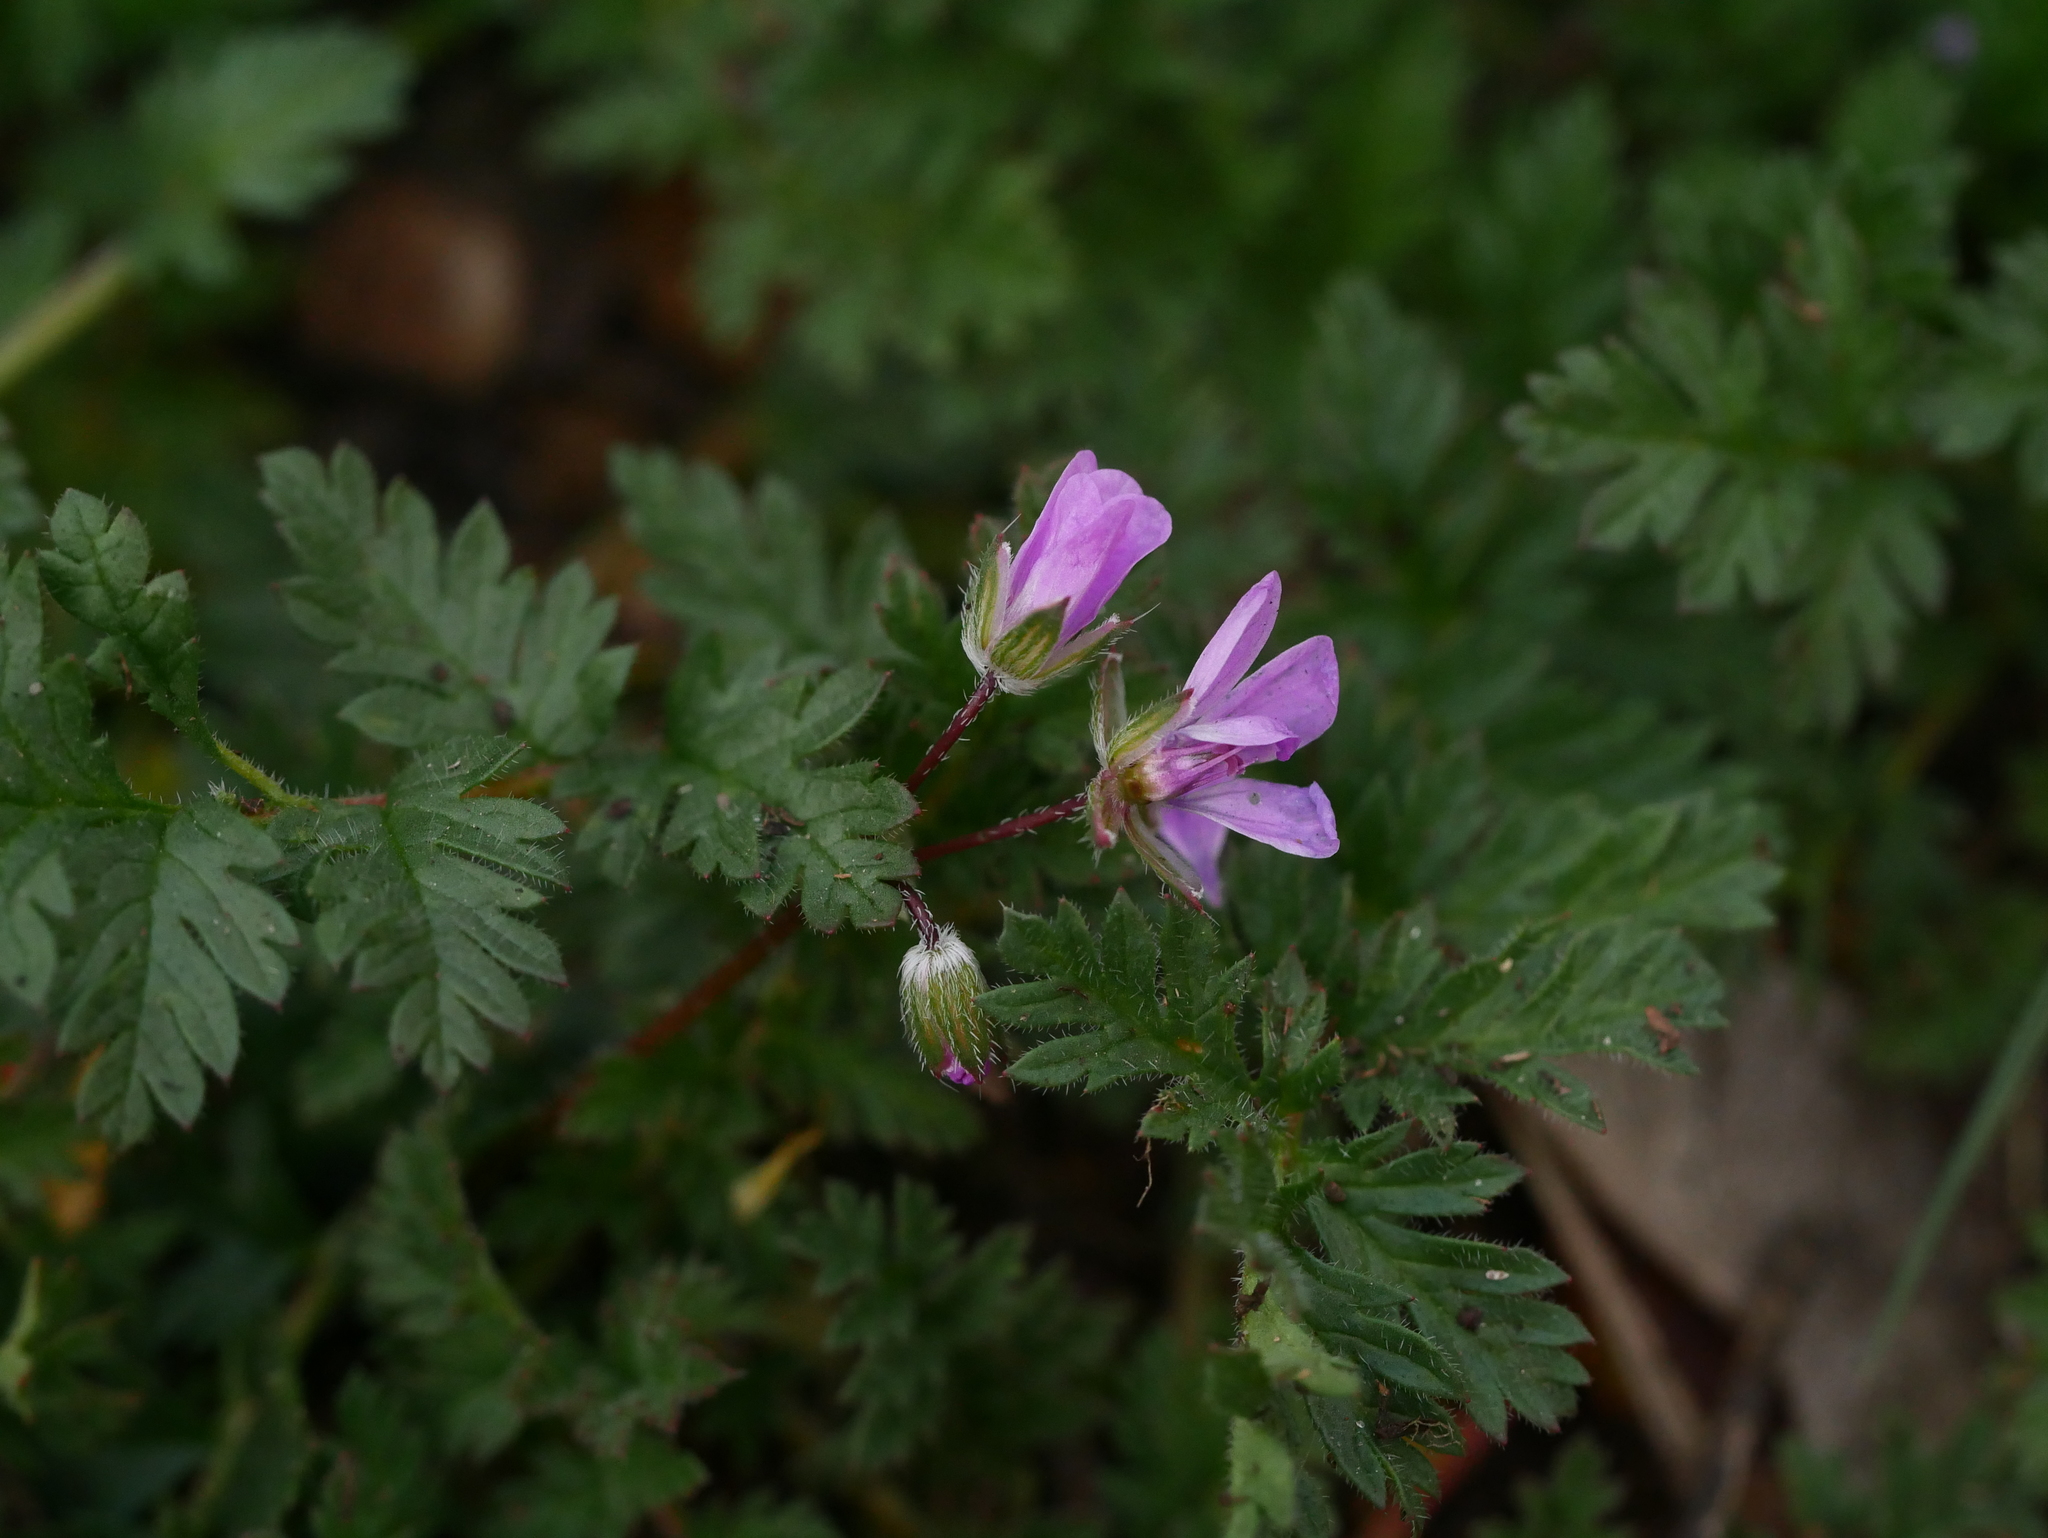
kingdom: Plantae
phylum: Tracheophyta
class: Magnoliopsida
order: Geraniales
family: Geraniaceae
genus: Erodium
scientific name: Erodium cicutarium
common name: Common stork's-bill
